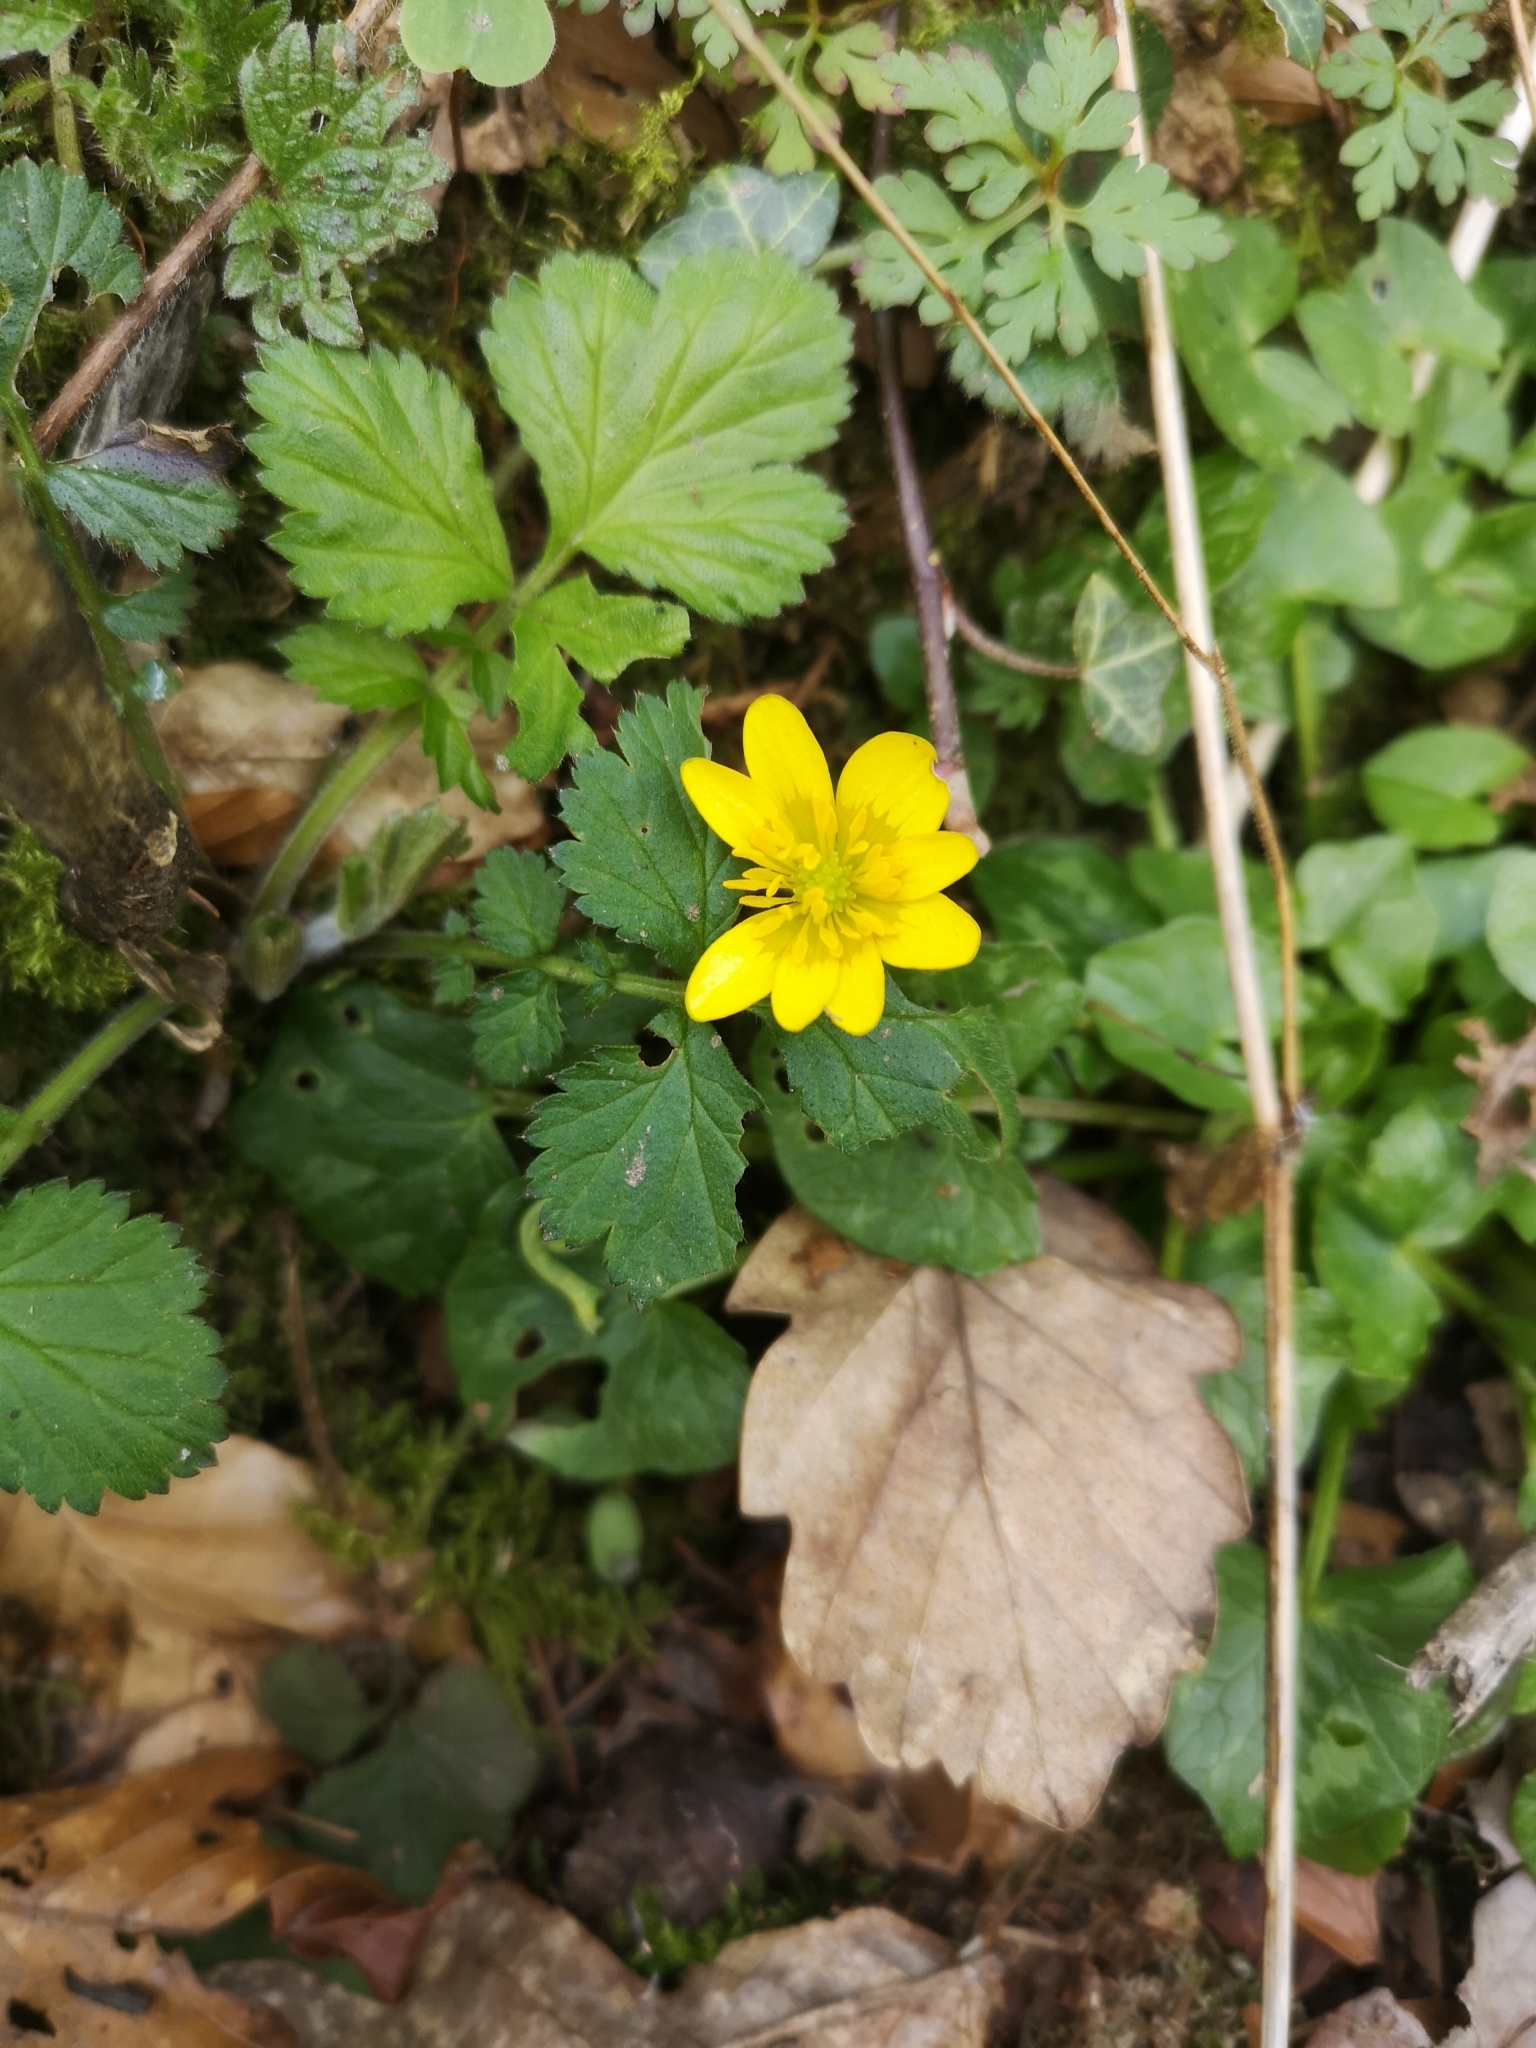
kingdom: Plantae
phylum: Tracheophyta
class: Magnoliopsida
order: Ranunculales
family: Ranunculaceae
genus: Ficaria
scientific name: Ficaria verna
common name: Lesser celandine
